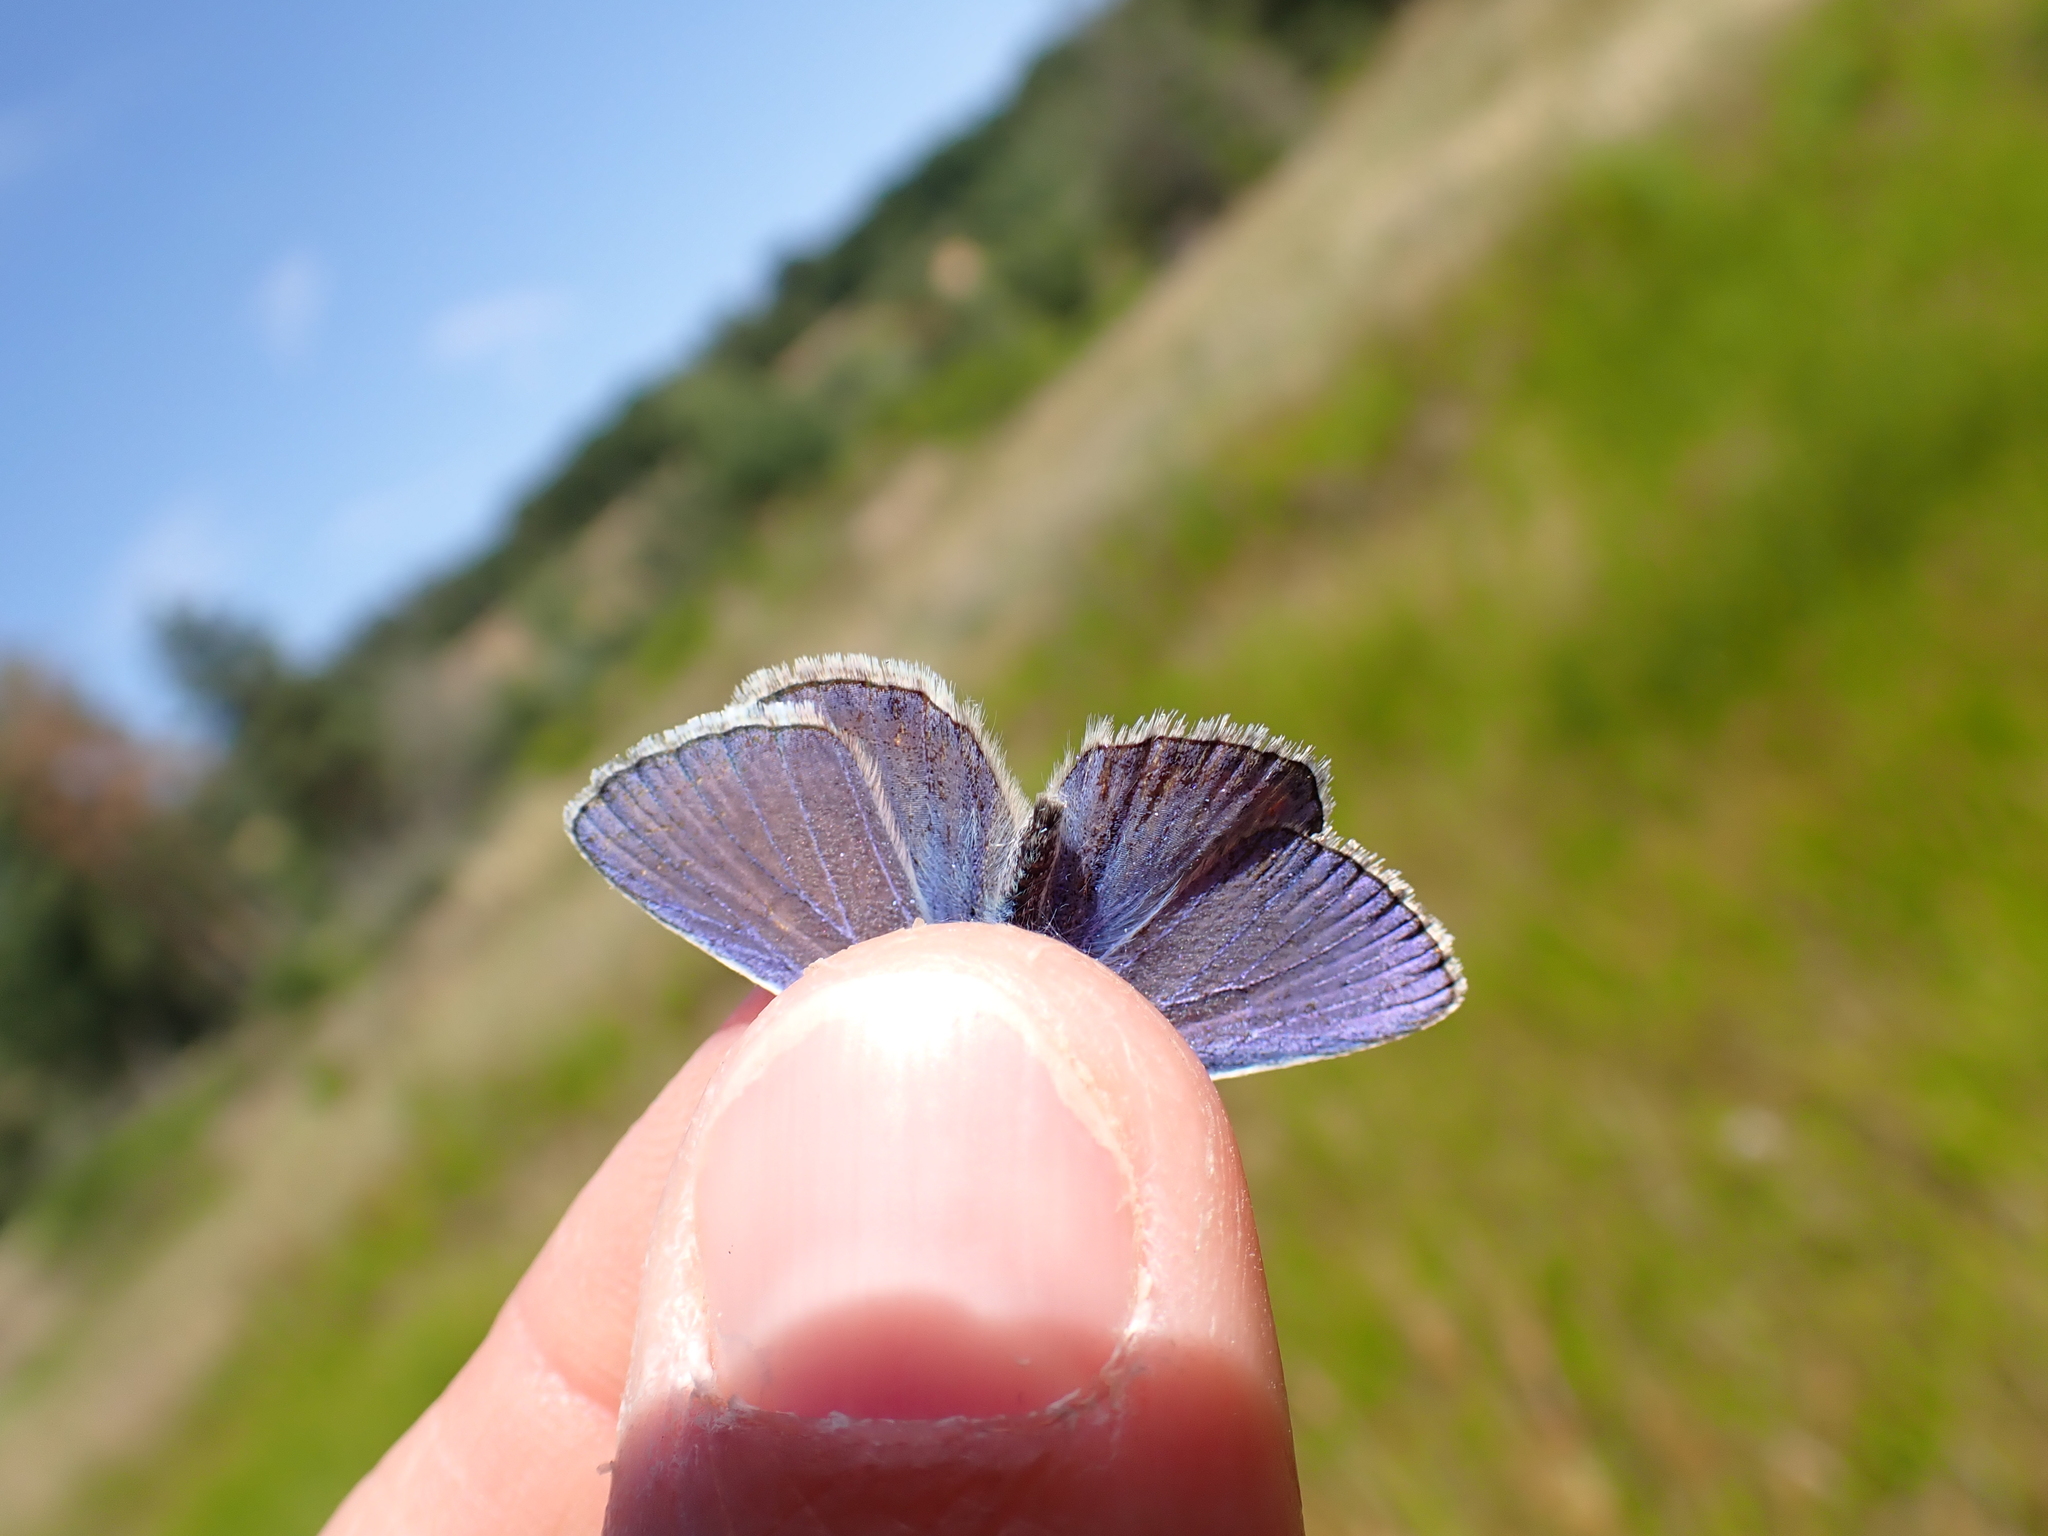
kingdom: Animalia
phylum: Arthropoda
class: Insecta
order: Lepidoptera
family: Lycaenidae
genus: Polyommatus
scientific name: Polyommatus icarus
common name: Common blue
